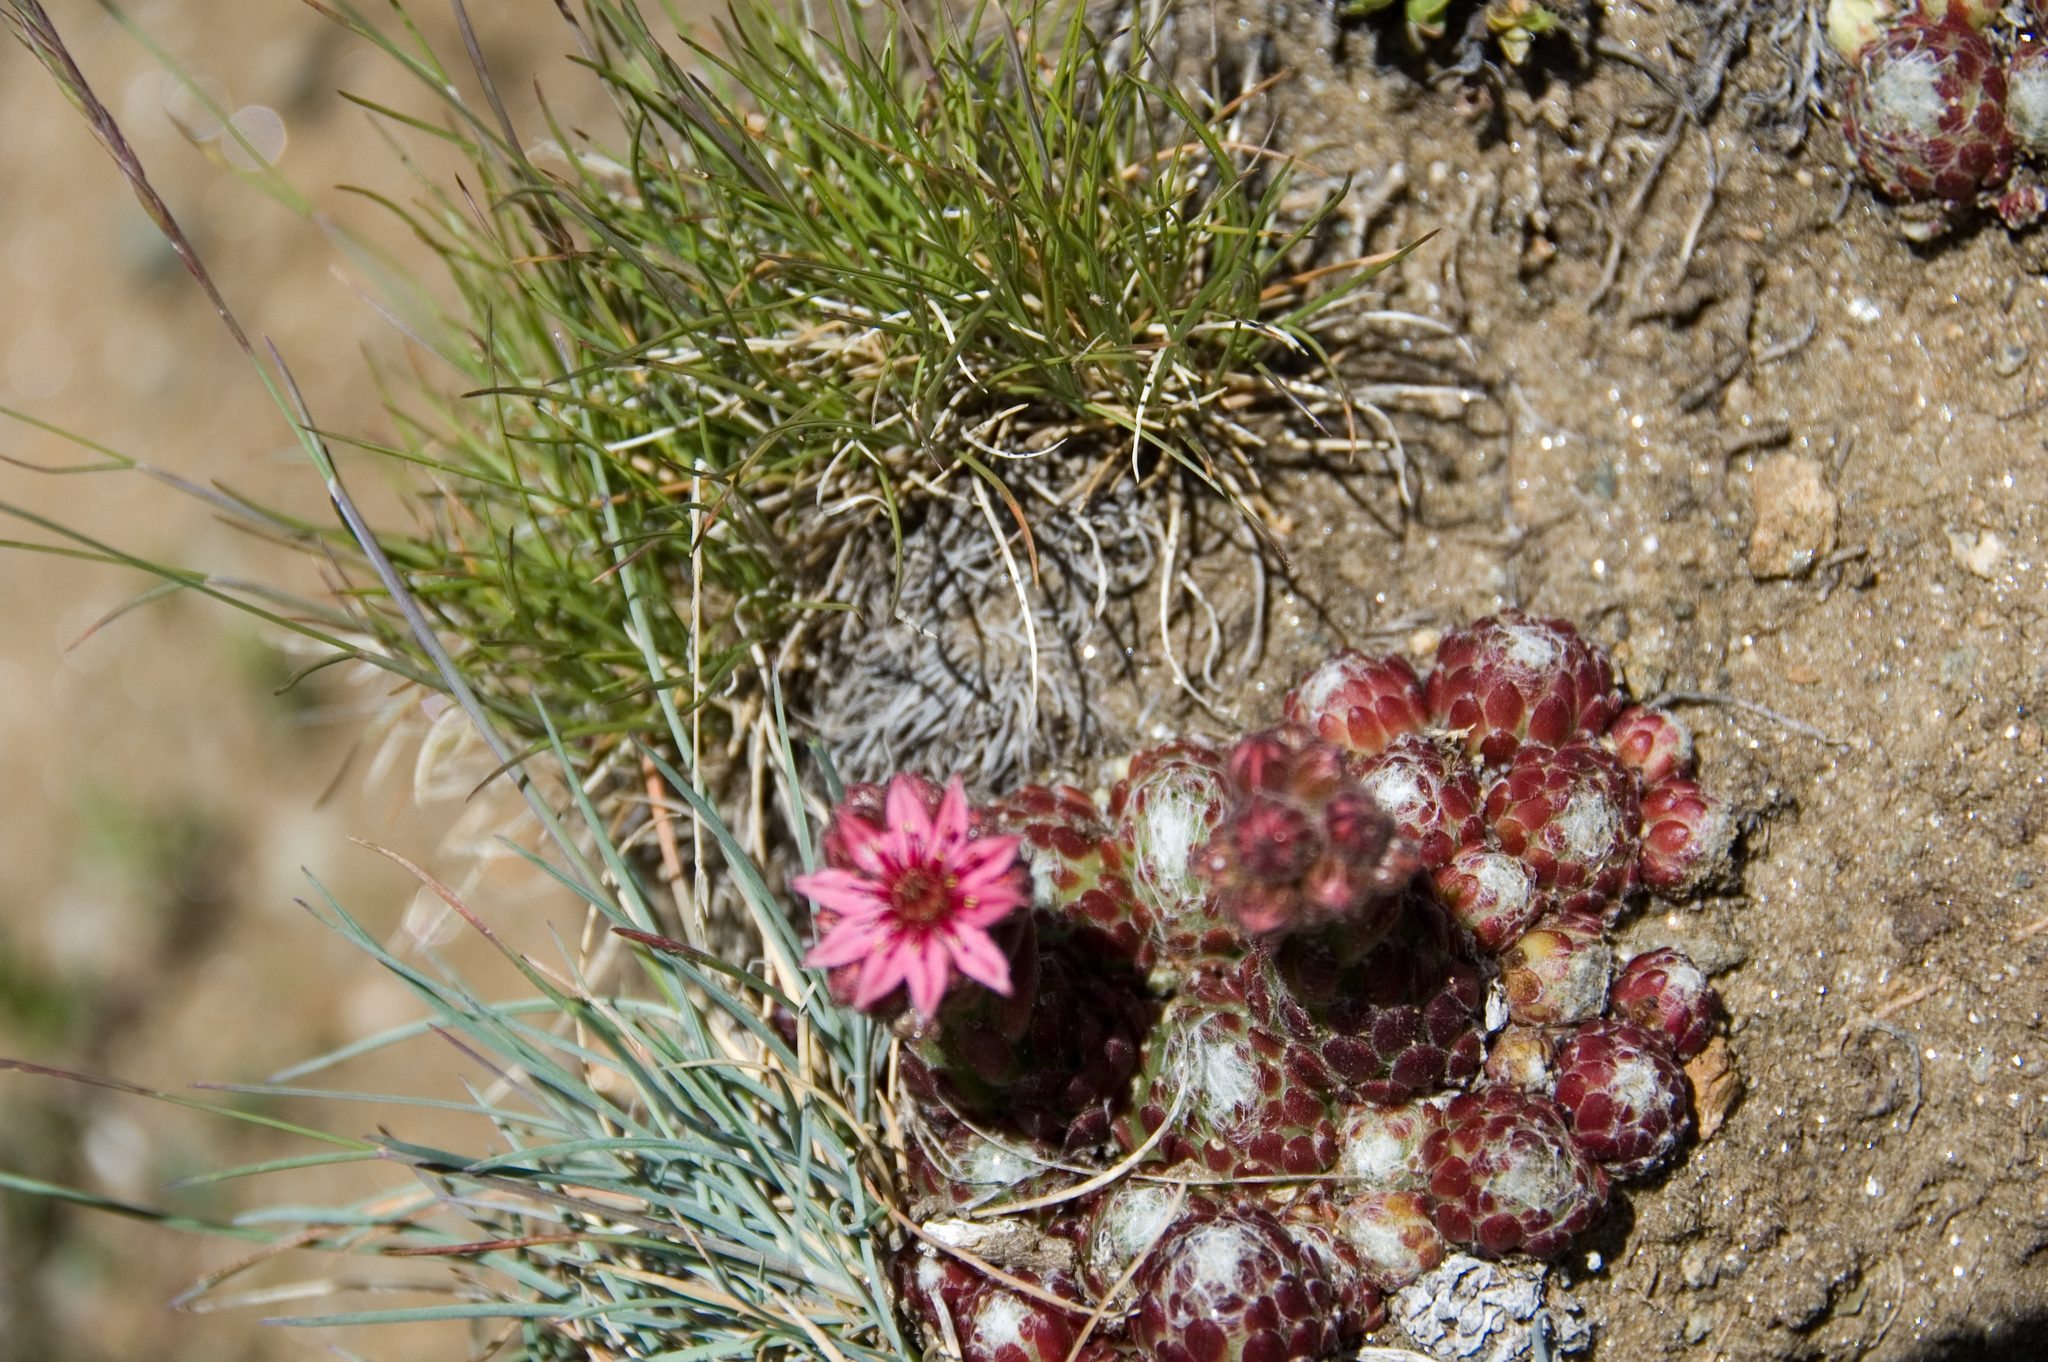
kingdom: Plantae
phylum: Tracheophyta
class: Magnoliopsida
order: Saxifragales
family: Crassulaceae
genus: Sempervivum
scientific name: Sempervivum arachnoideum
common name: Cobweb house-leek
